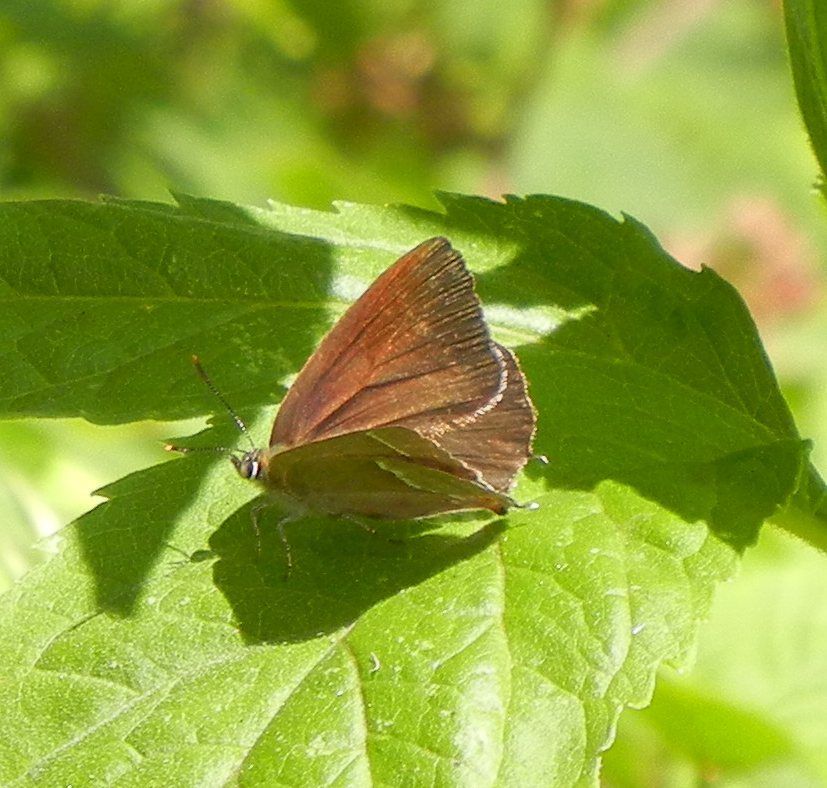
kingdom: Animalia
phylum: Arthropoda
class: Insecta
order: Lepidoptera
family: Lycaenidae
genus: Quercusia
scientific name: Quercusia quercus
